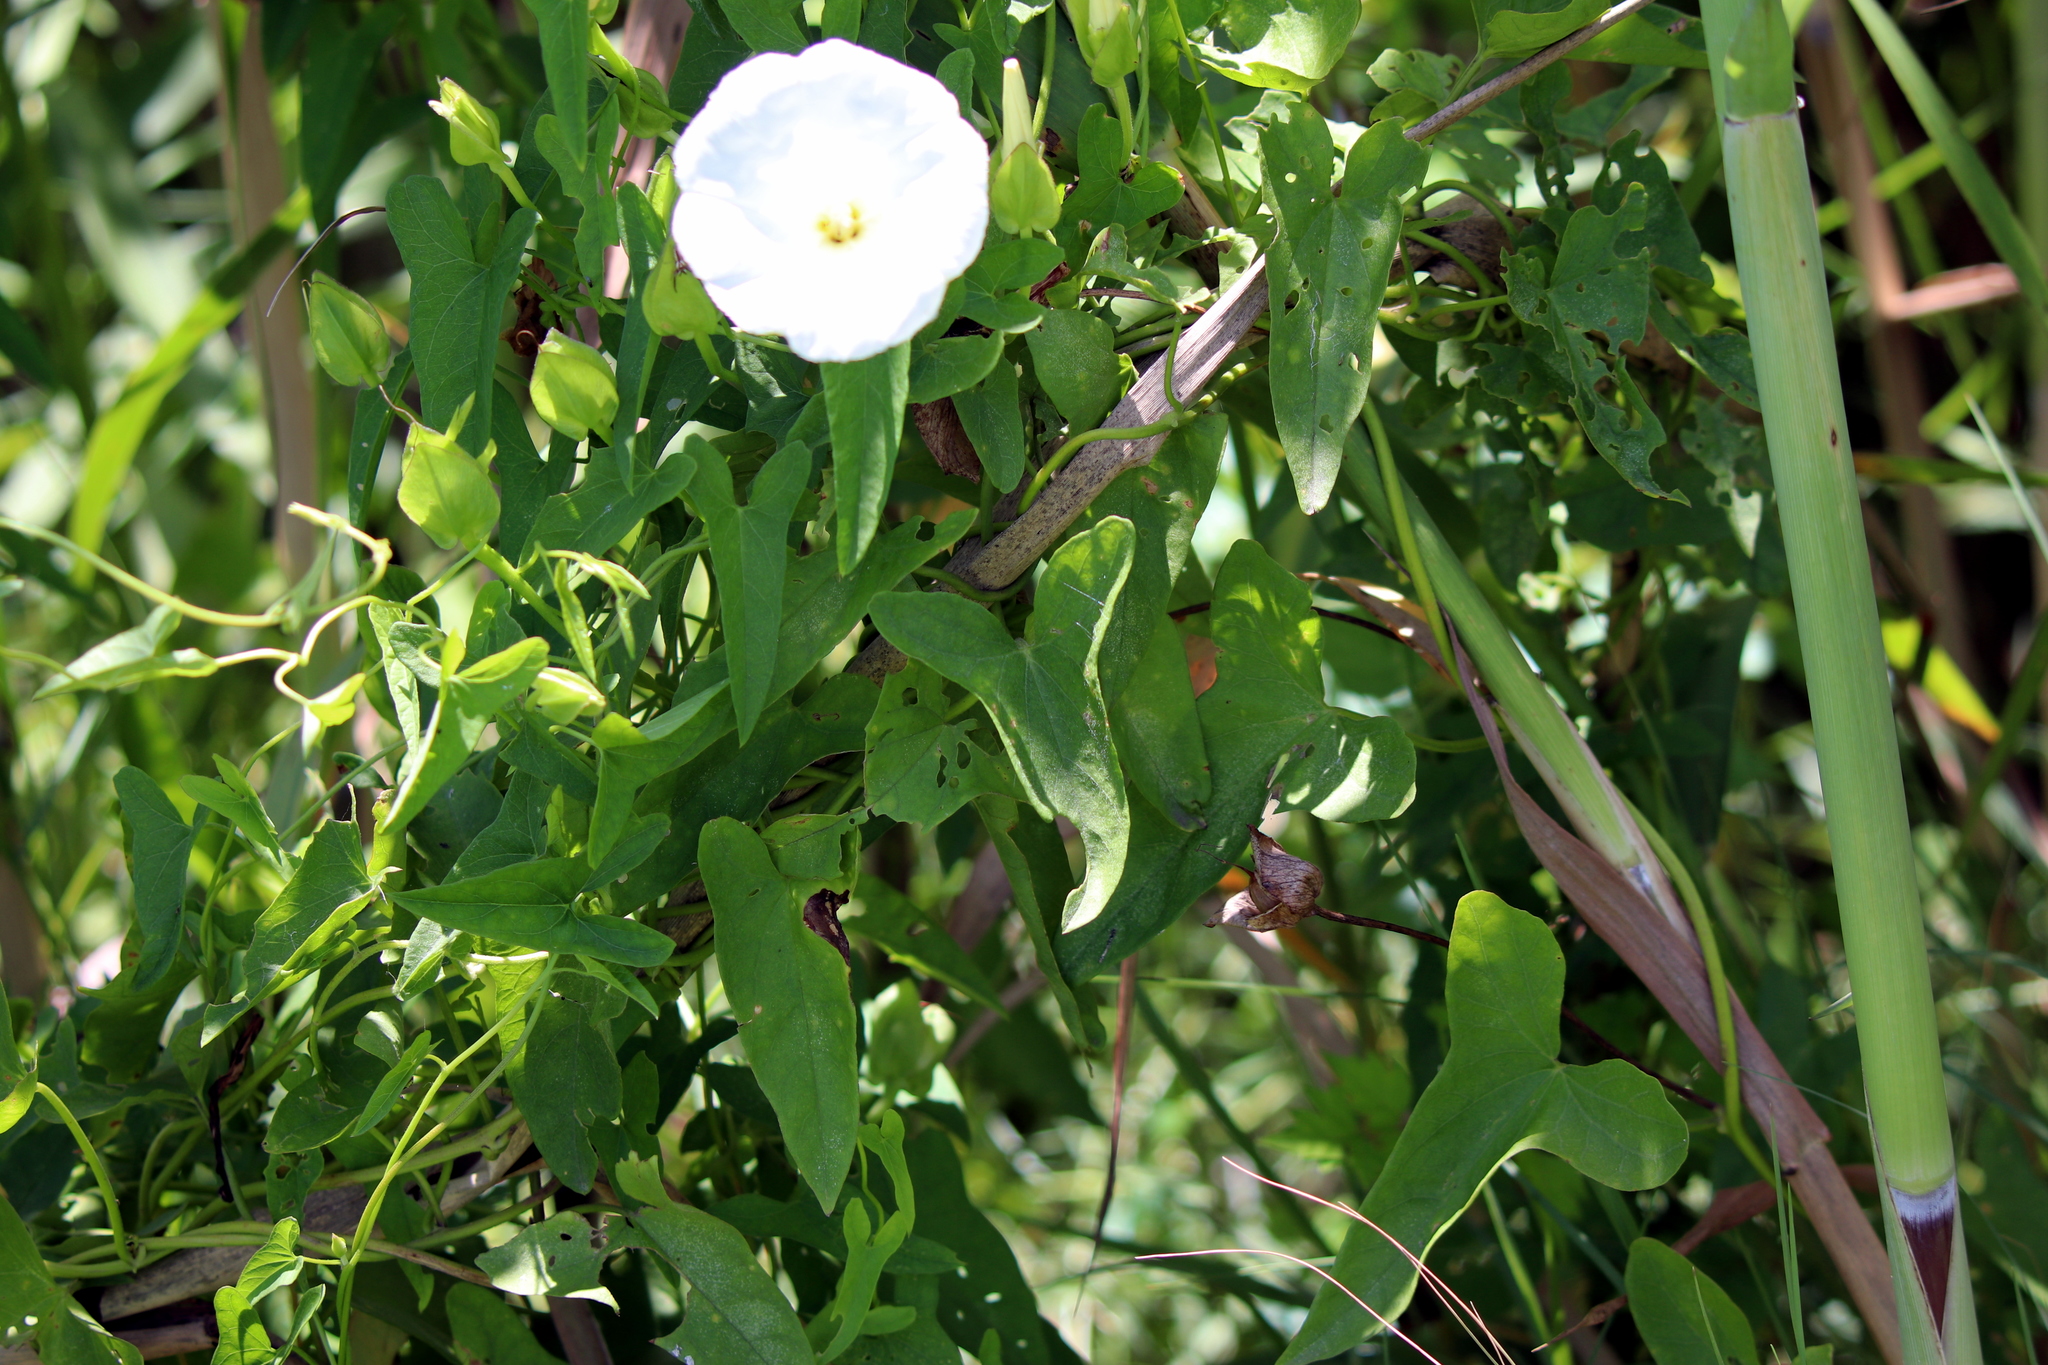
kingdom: Plantae
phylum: Tracheophyta
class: Magnoliopsida
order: Solanales
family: Convolvulaceae
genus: Calystegia
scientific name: Calystegia sepium
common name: Hedge bindweed
